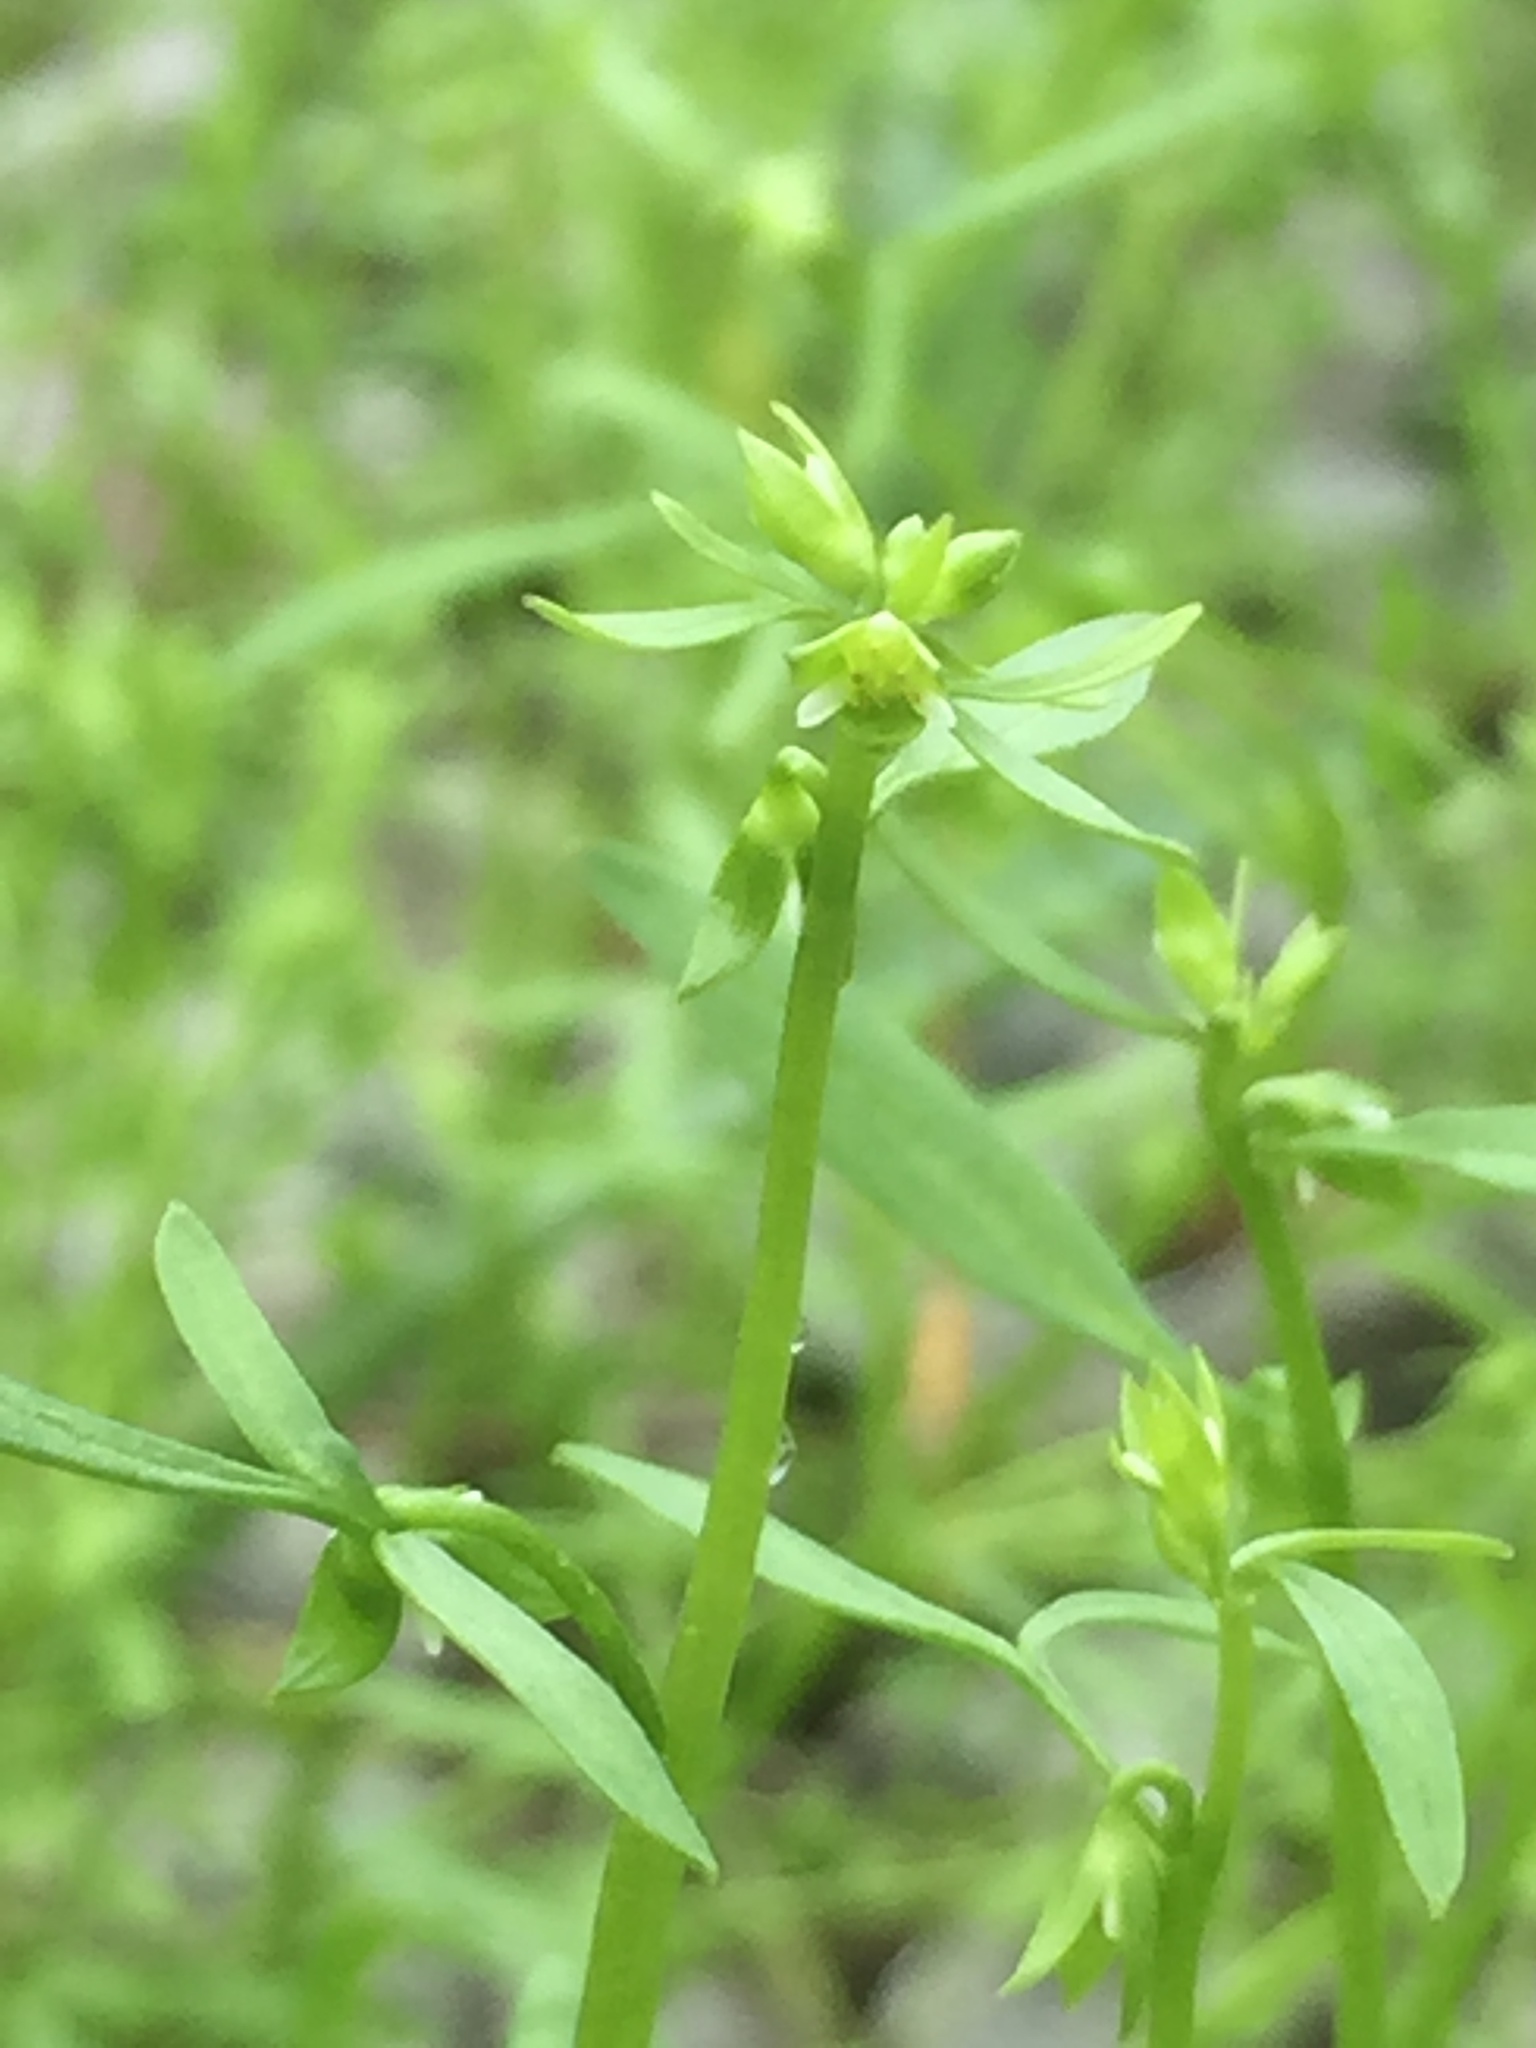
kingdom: Plantae
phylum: Tracheophyta
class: Magnoliopsida
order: Brassicales
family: Limnanthaceae
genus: Floerkea
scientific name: Floerkea proserpinacoides
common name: False mermaid
